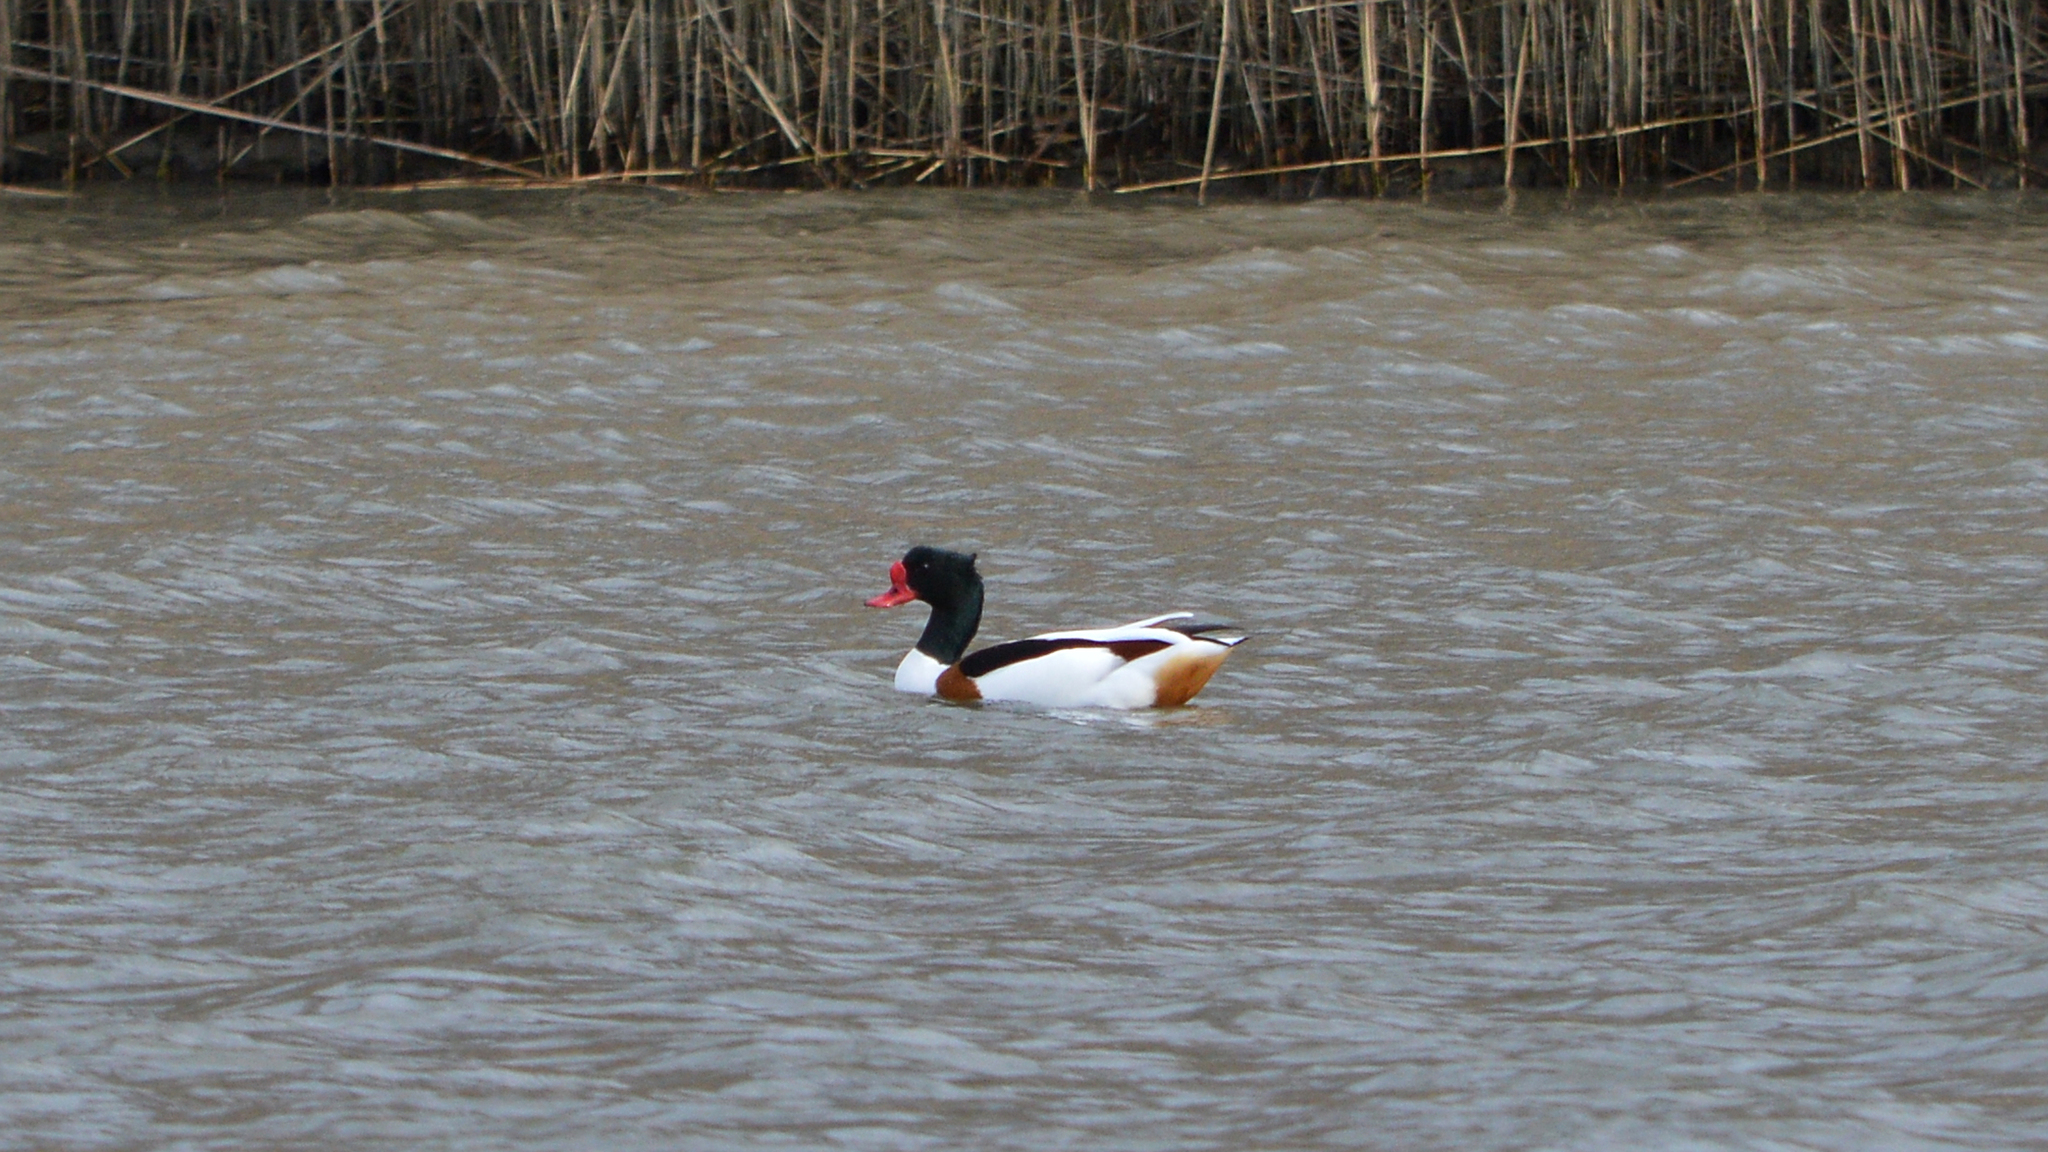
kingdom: Animalia
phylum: Chordata
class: Aves
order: Anseriformes
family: Anatidae
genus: Tadorna
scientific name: Tadorna tadorna
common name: Common shelduck
